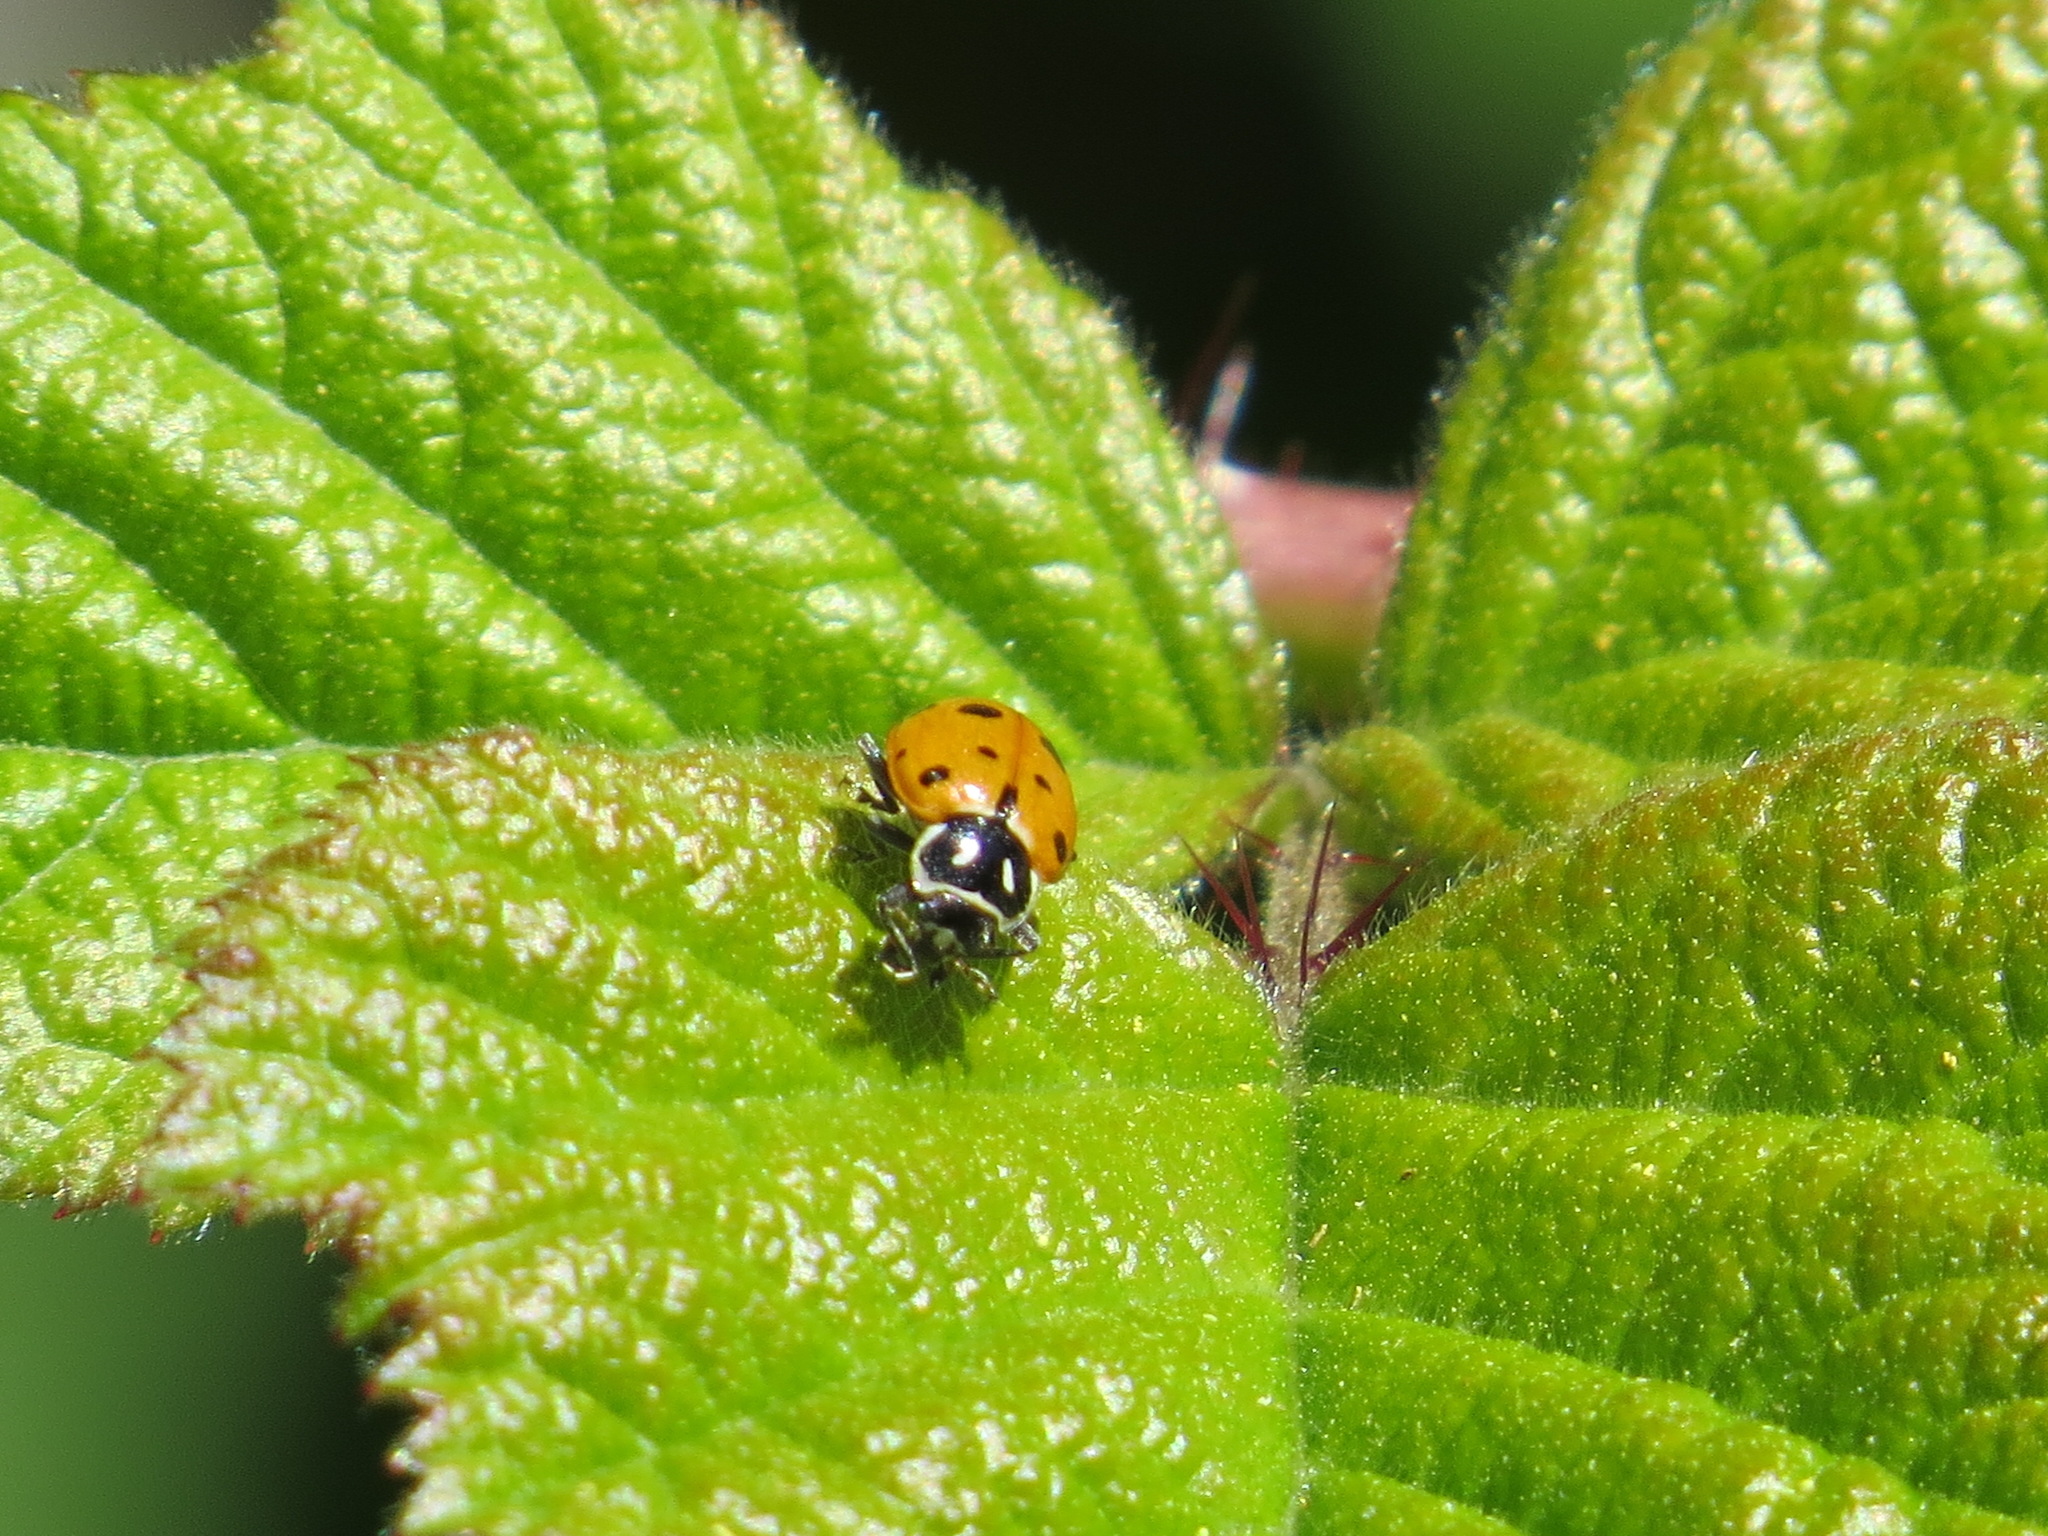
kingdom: Animalia
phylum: Arthropoda
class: Insecta
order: Coleoptera
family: Coccinellidae
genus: Hippodamia
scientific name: Hippodamia convergens
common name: Convergent lady beetle
